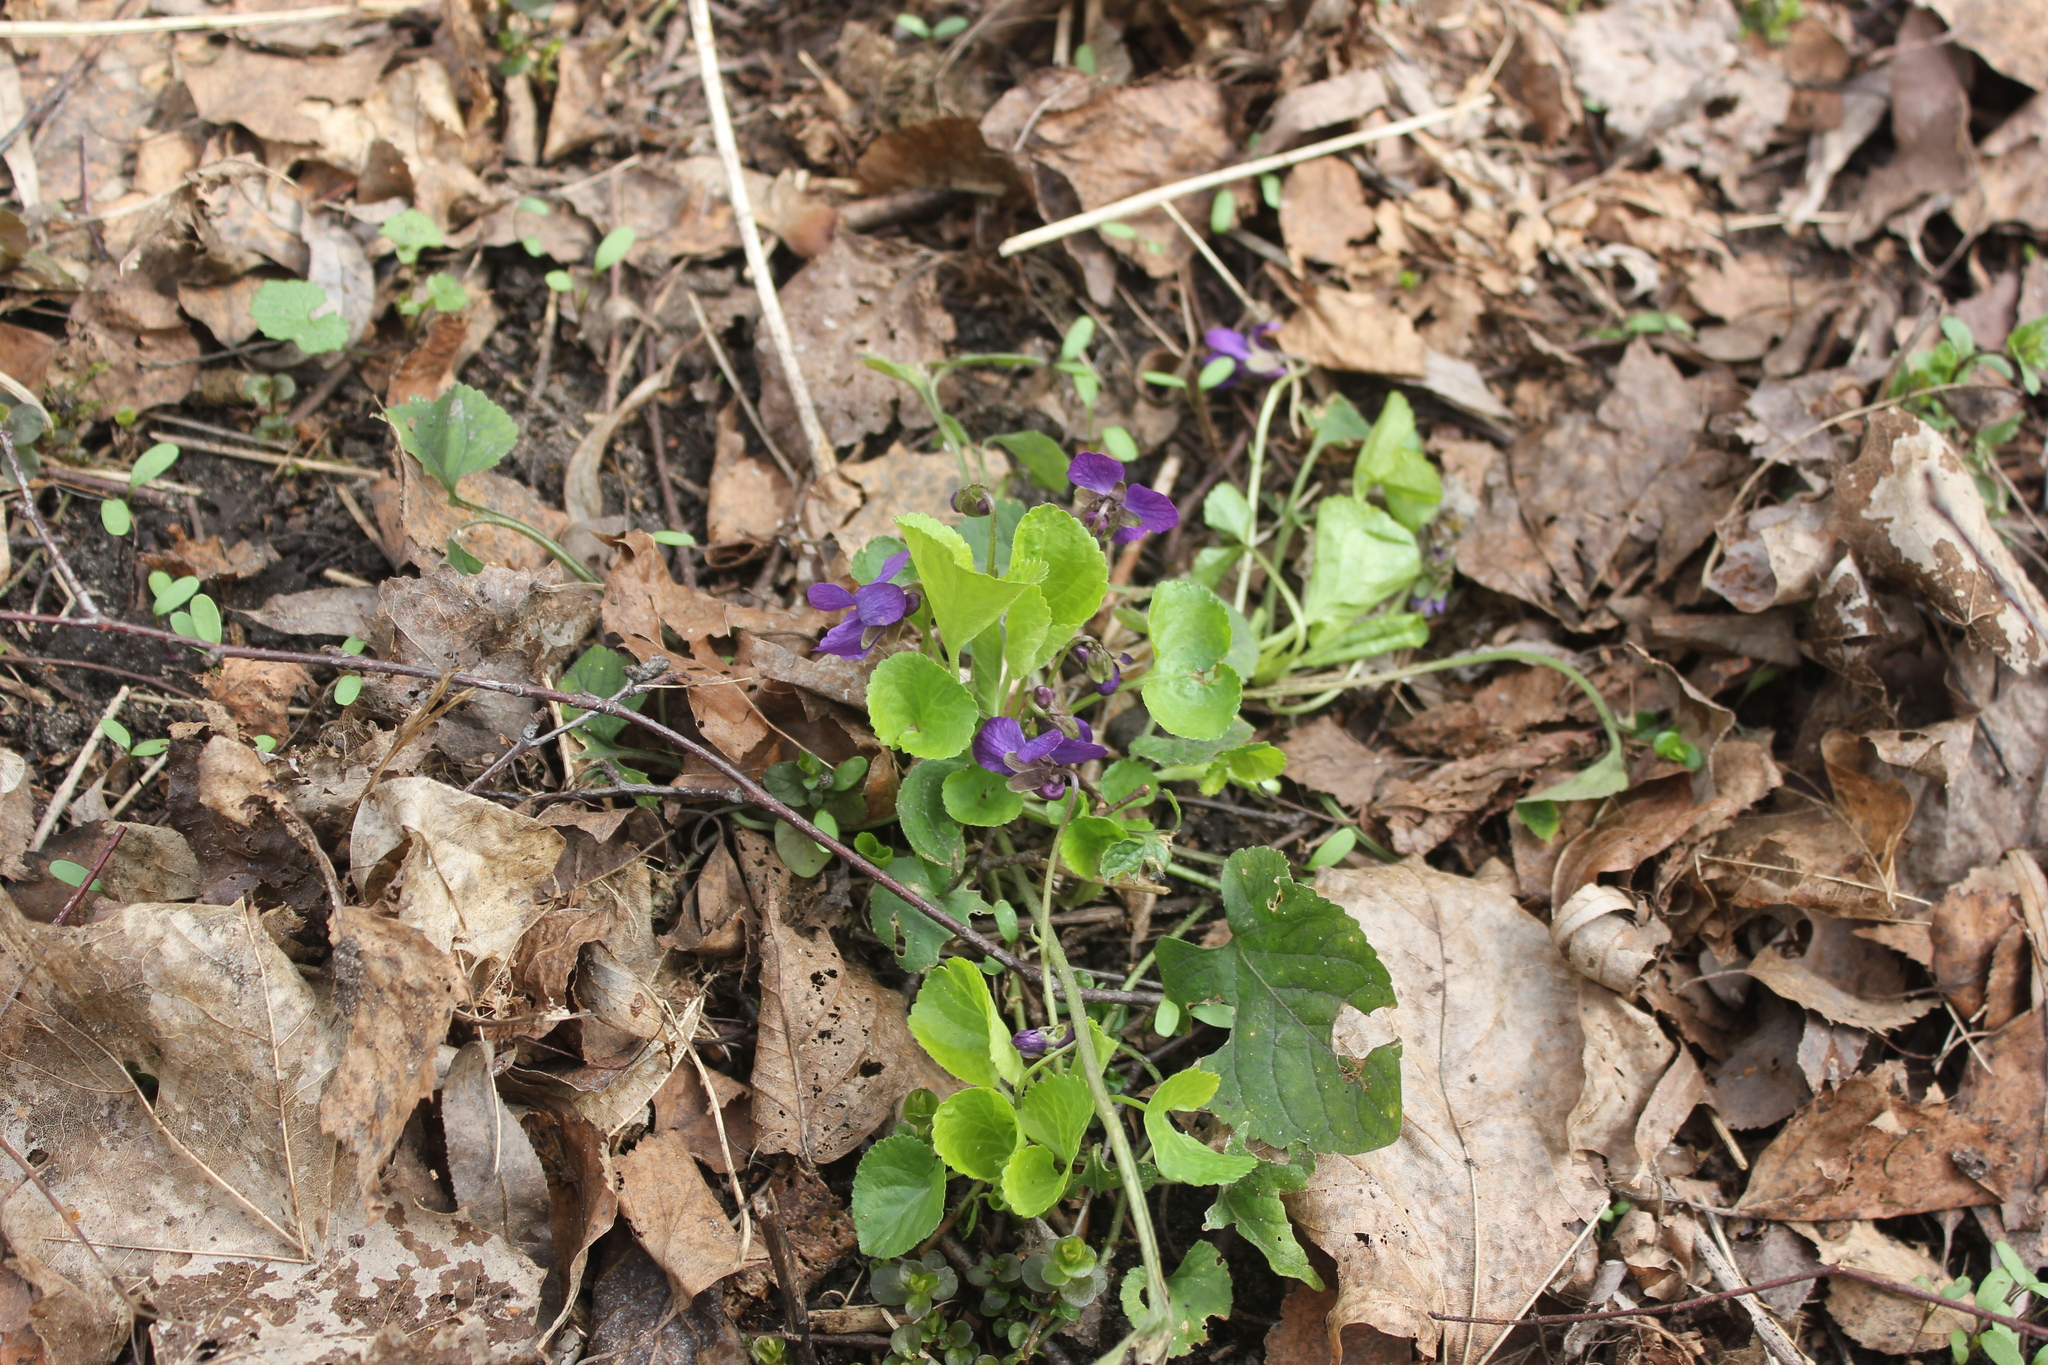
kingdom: Plantae
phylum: Tracheophyta
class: Magnoliopsida
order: Malpighiales
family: Violaceae
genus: Viola
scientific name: Viola odorata
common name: Sweet violet
